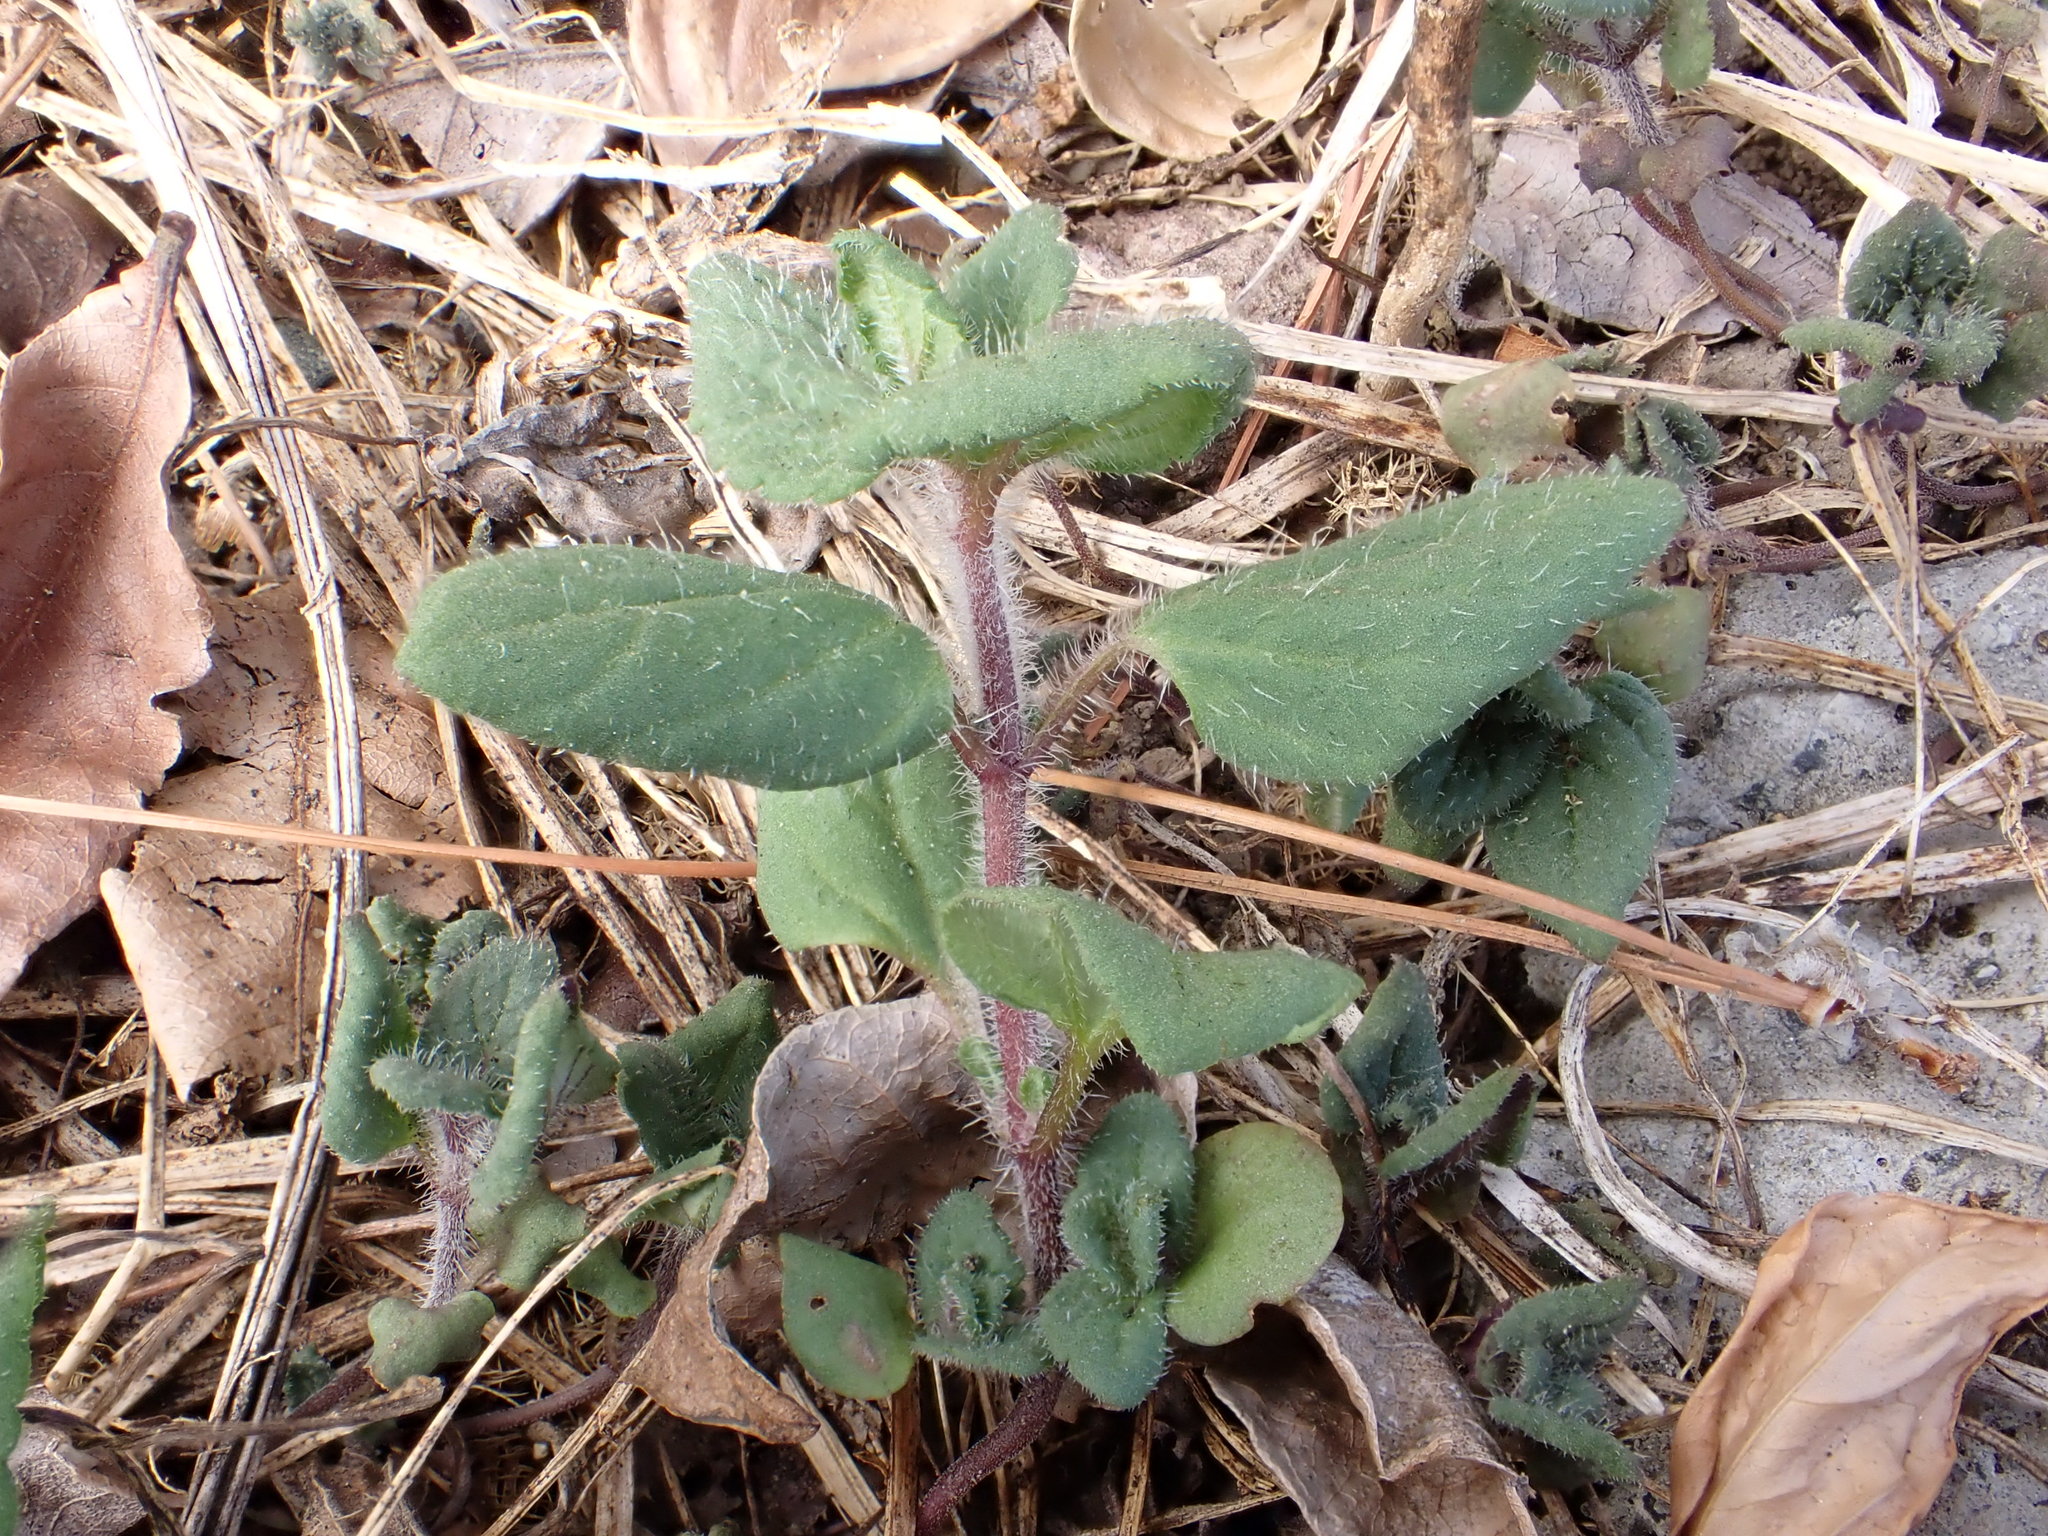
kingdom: Plantae
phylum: Tracheophyta
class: Magnoliopsida
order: Lamiales
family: Lamiaceae
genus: Prunella
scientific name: Prunella vulgaris
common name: Heal-all
